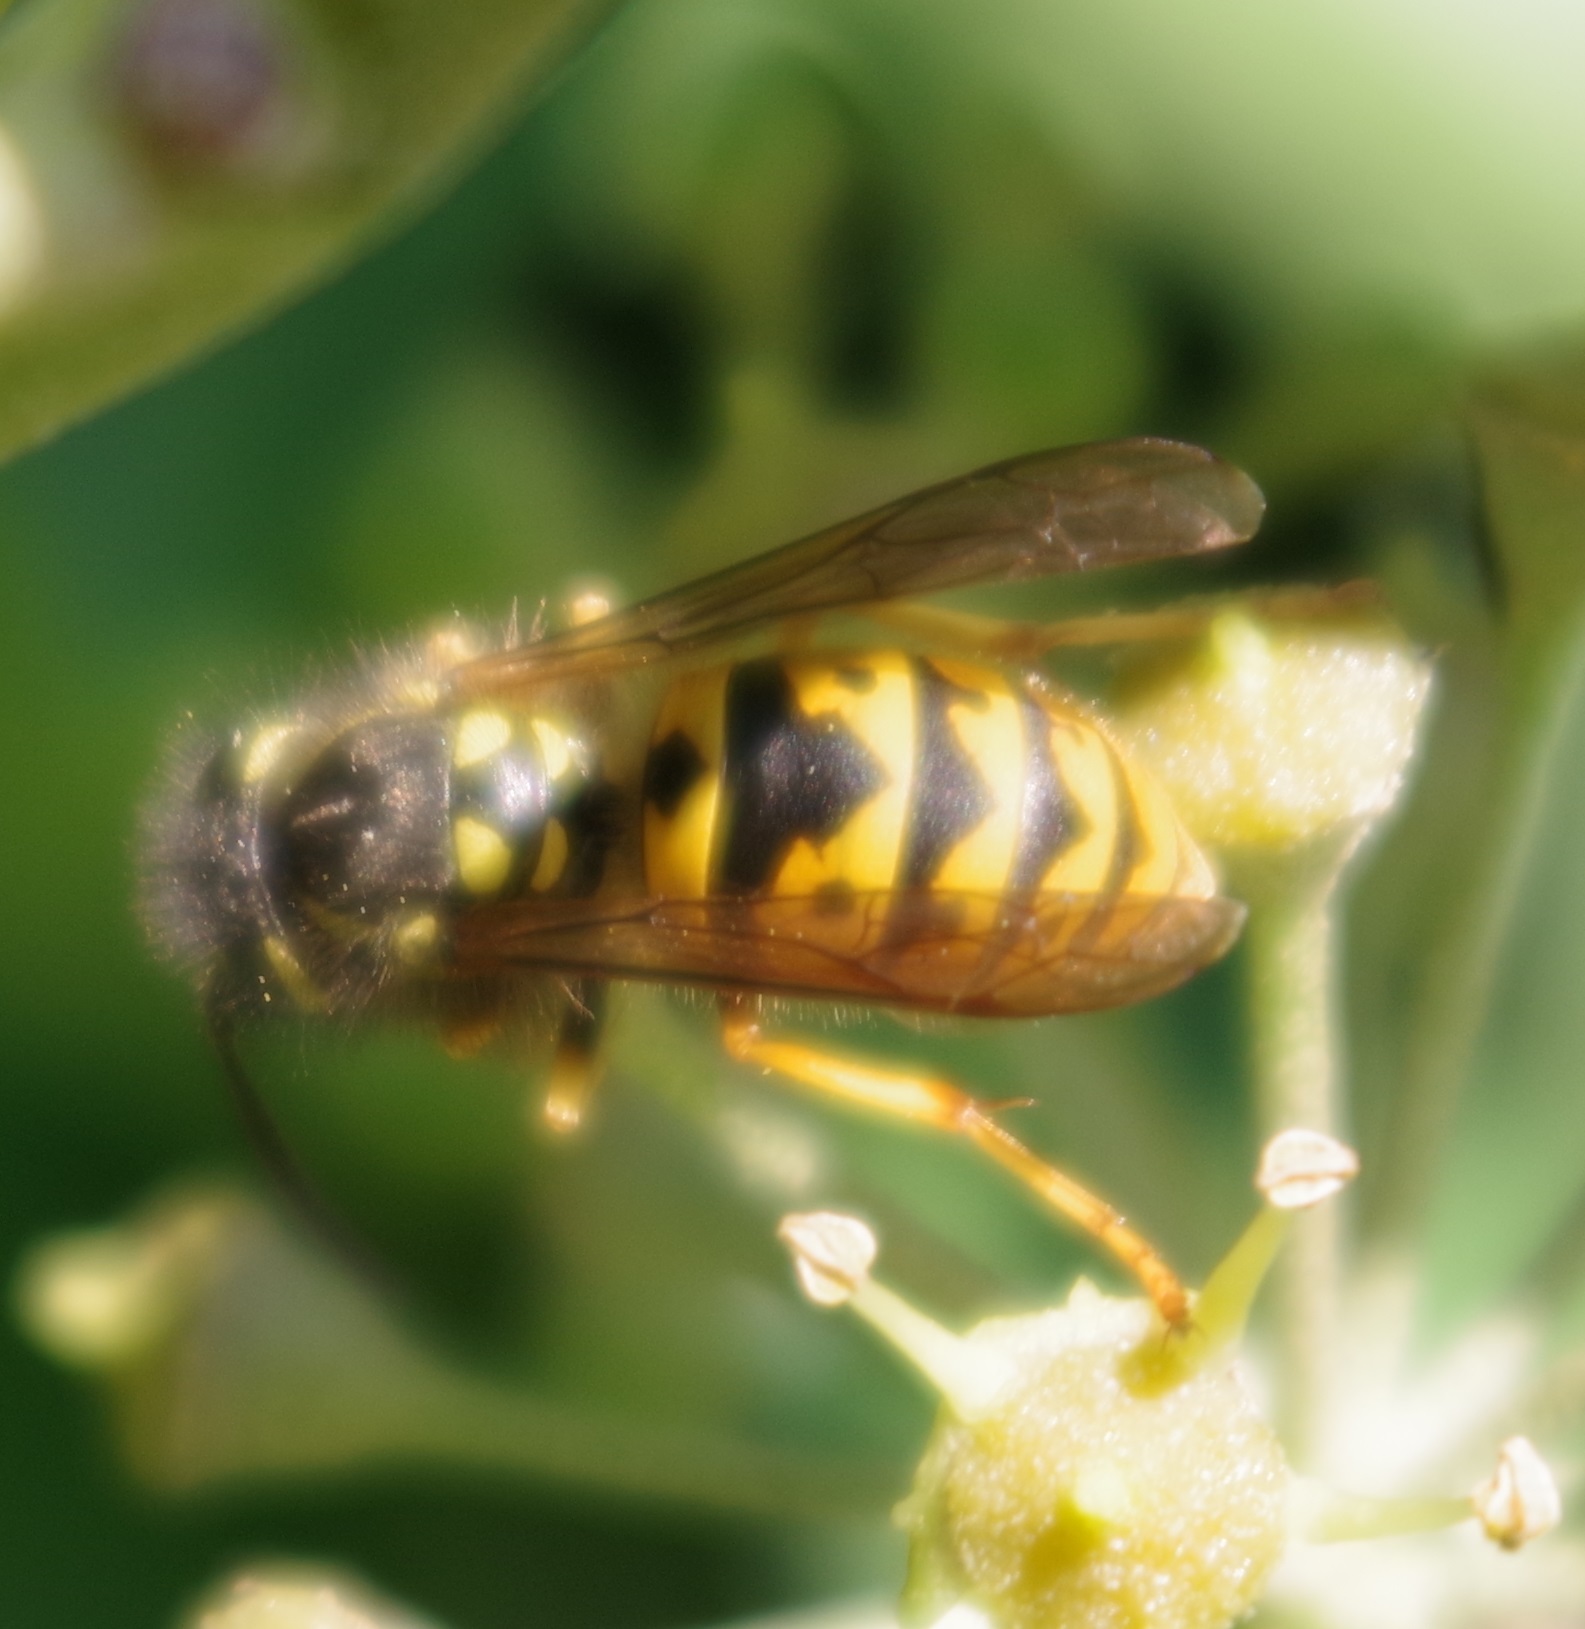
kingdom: Animalia
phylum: Arthropoda
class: Insecta
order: Hymenoptera
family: Vespidae
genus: Vespula
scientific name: Vespula germanica
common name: German wasp
